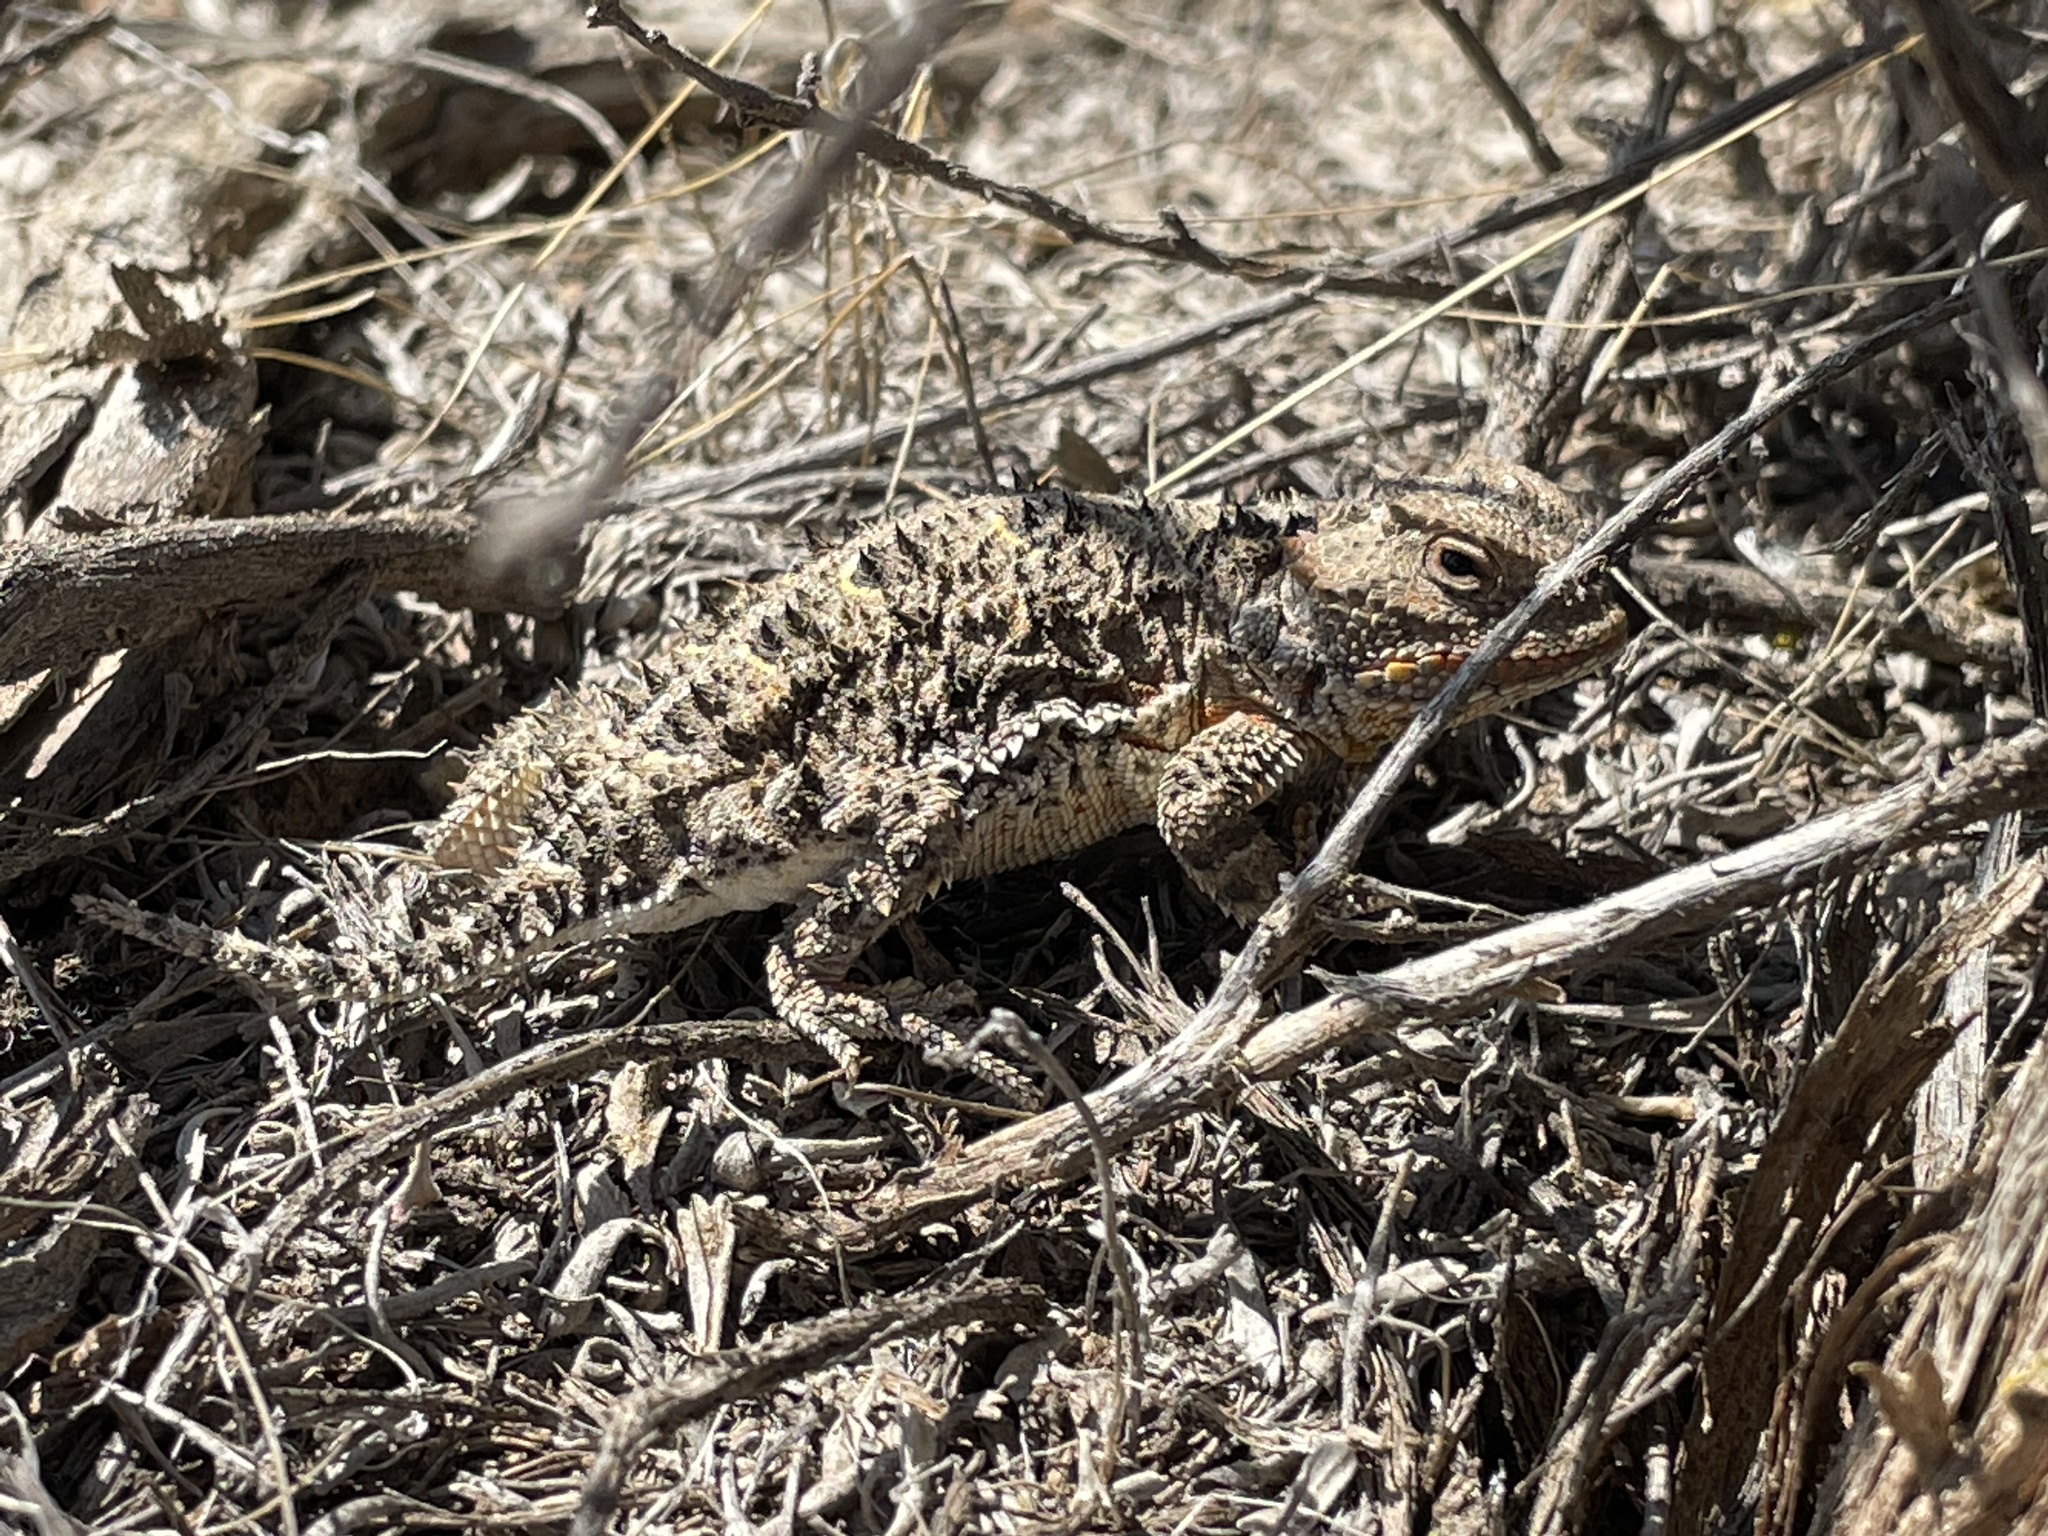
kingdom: Animalia
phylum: Chordata
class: Squamata
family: Phrynosomatidae
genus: Phrynosoma
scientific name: Phrynosoma hernandesi
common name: Greater short-horned lizard
